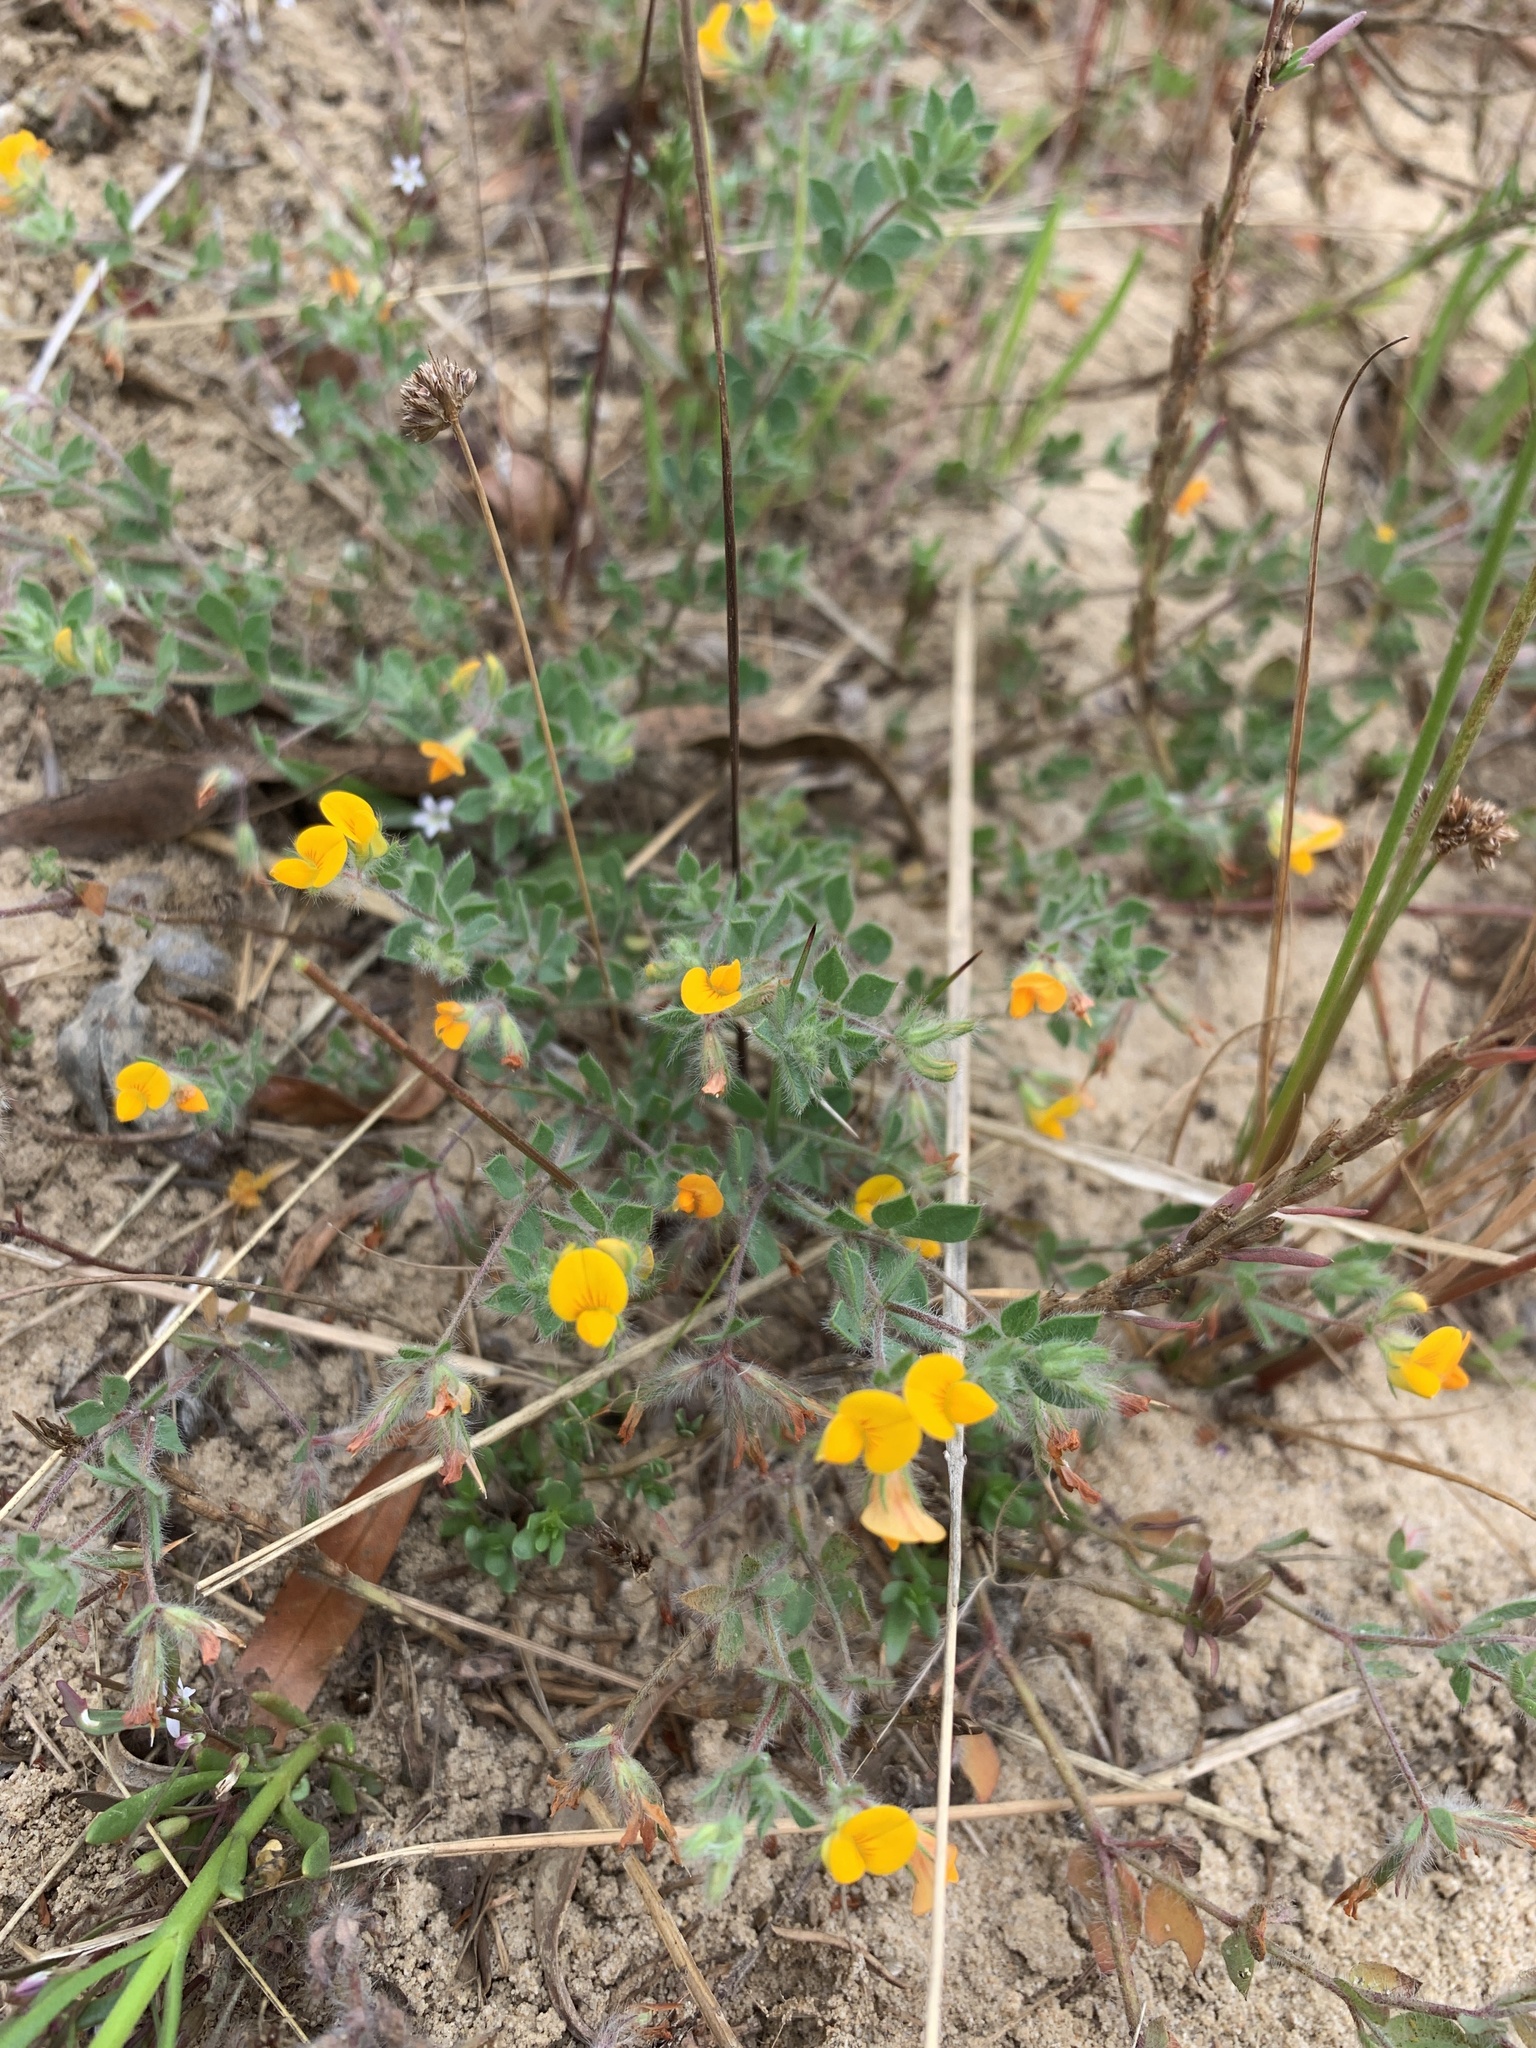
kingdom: Plantae
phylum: Tracheophyta
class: Magnoliopsida
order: Fabales
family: Fabaceae
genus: Lotus
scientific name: Lotus subbiflorus
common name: Hairy bird's-foot trefoil
